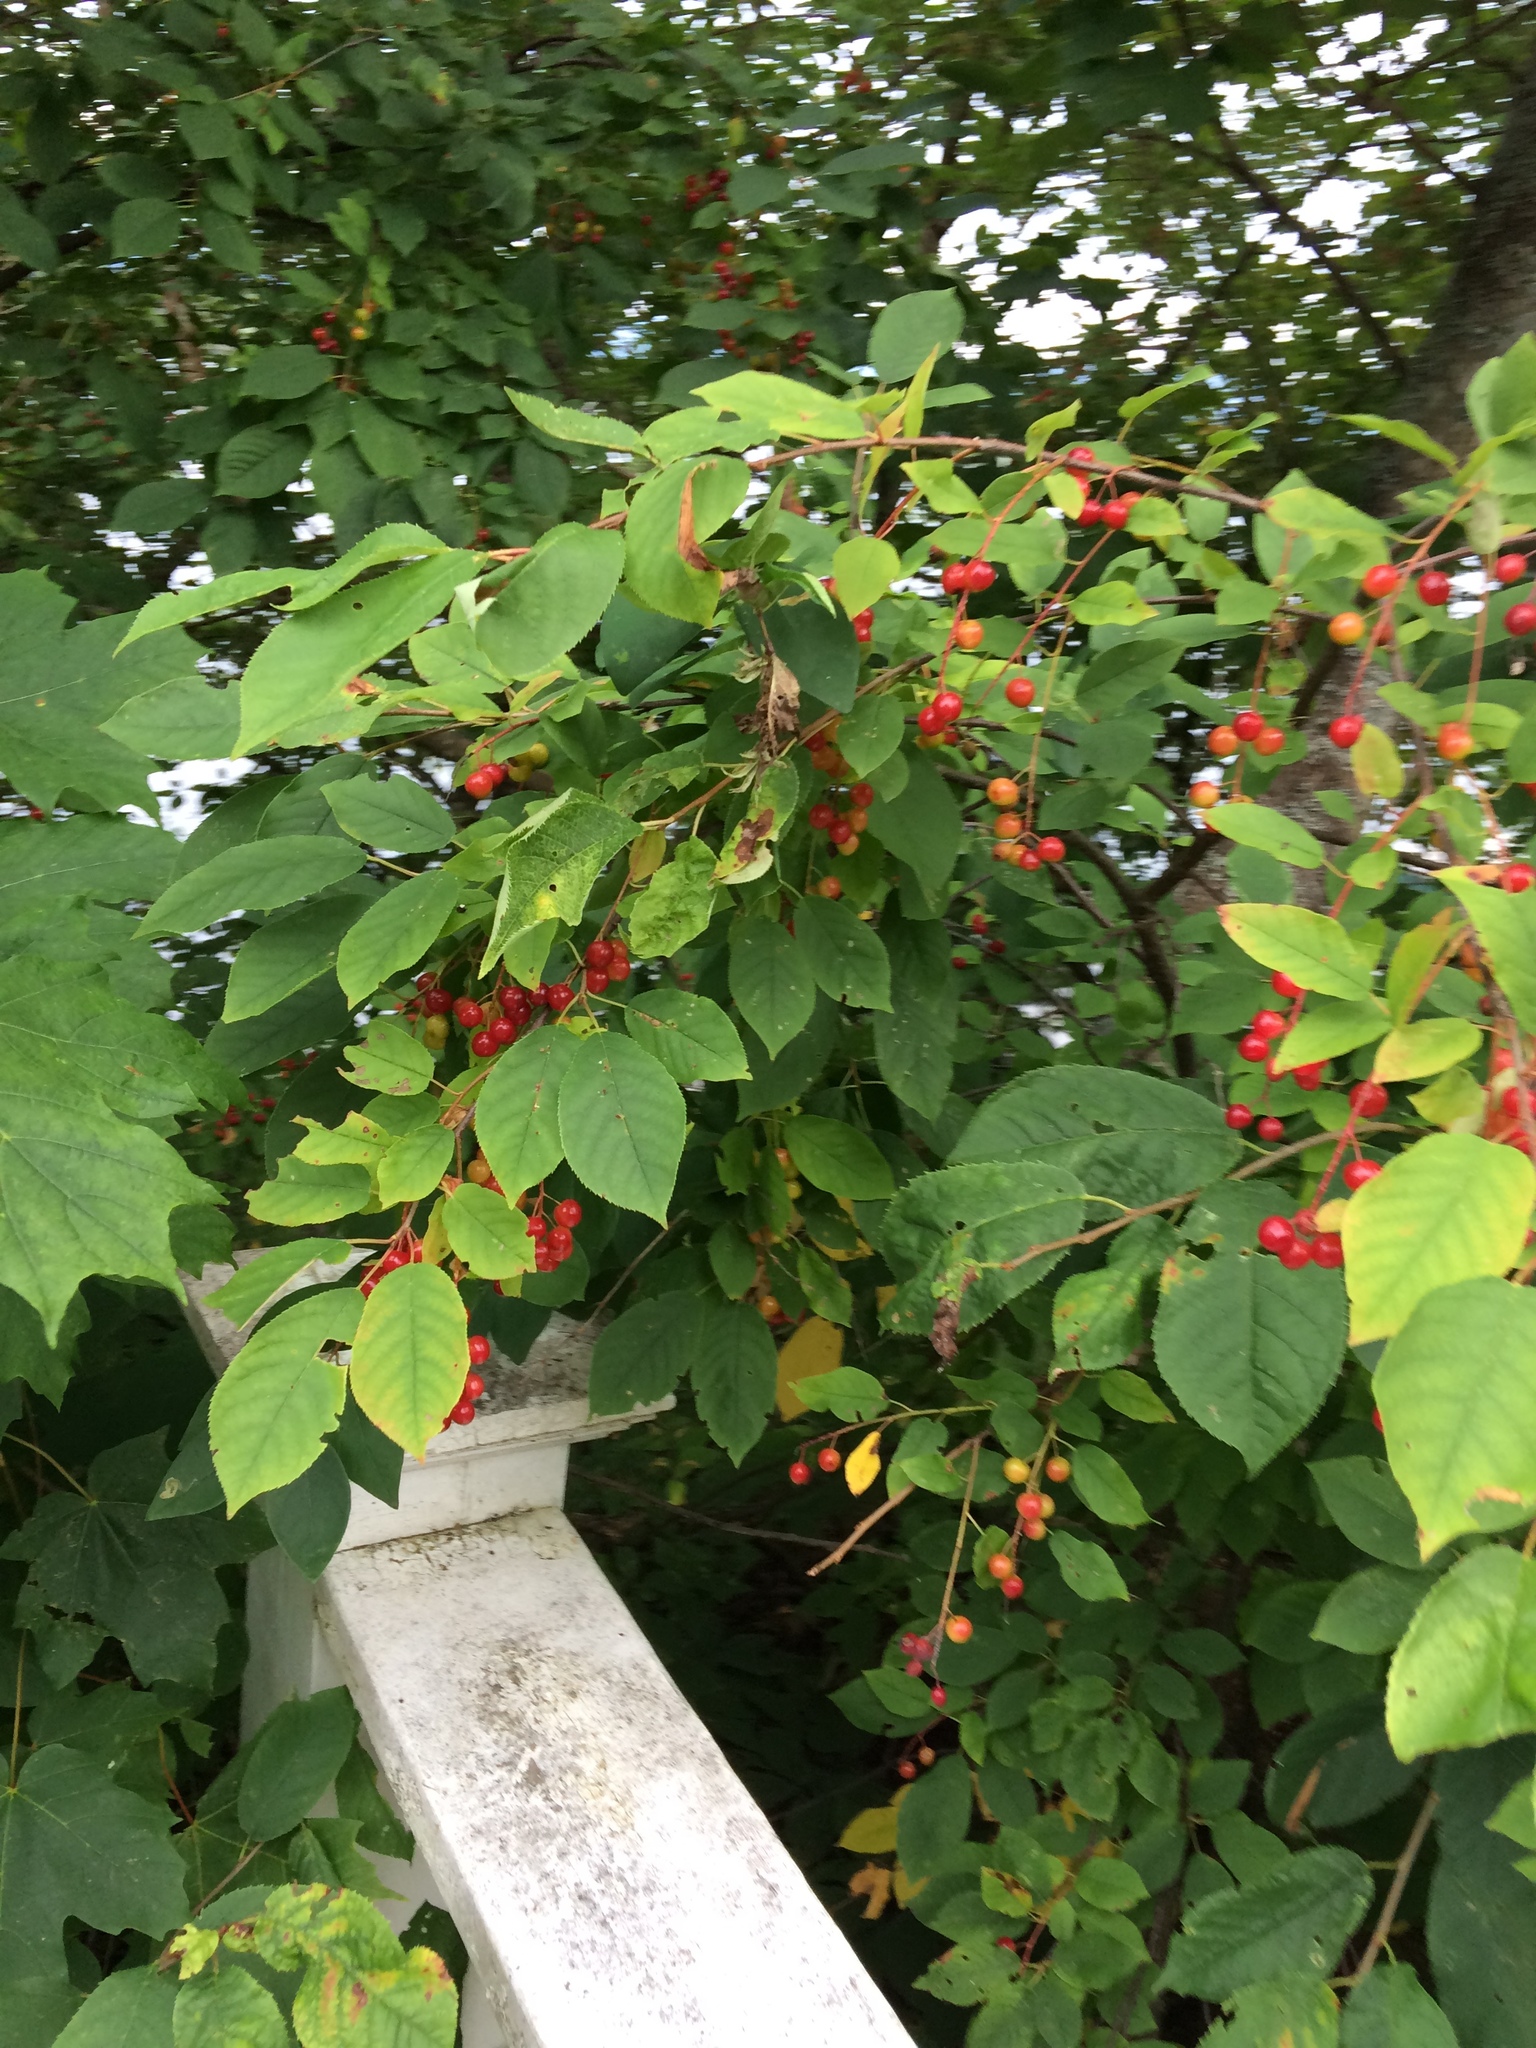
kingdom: Plantae
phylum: Tracheophyta
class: Magnoliopsida
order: Rosales
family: Rosaceae
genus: Prunus
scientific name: Prunus virginiana
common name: Chokecherry
